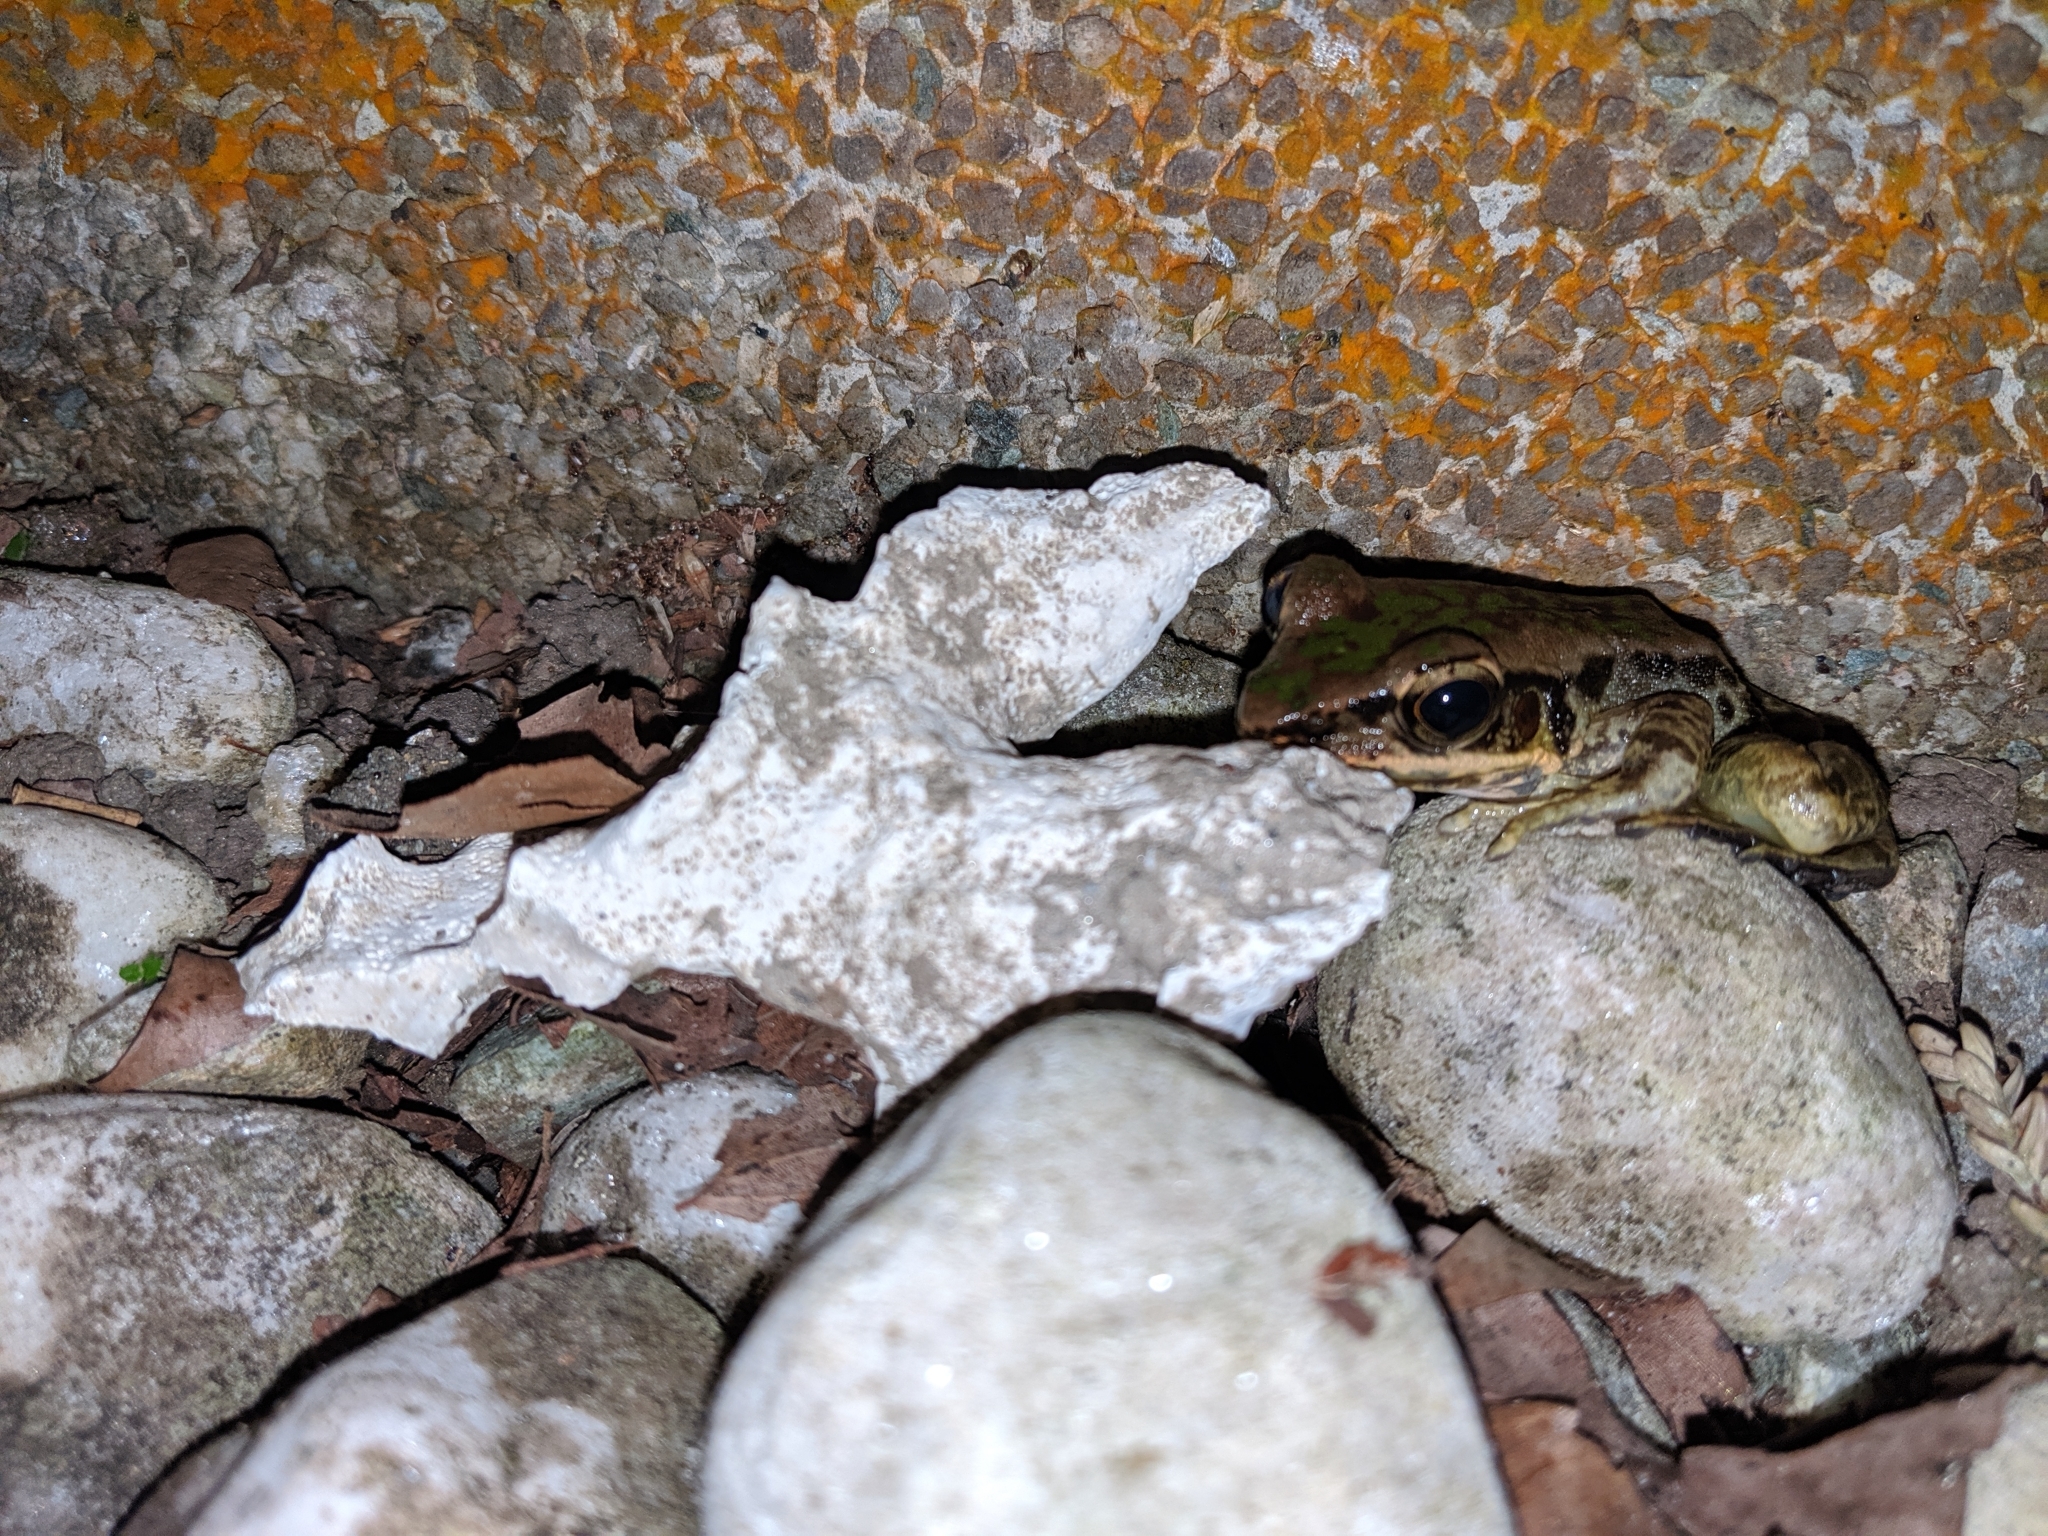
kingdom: Animalia
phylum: Chordata
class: Amphibia
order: Anura
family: Ranidae
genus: Odorrana
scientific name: Odorrana swinhoana
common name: Bangkimtsing frog
